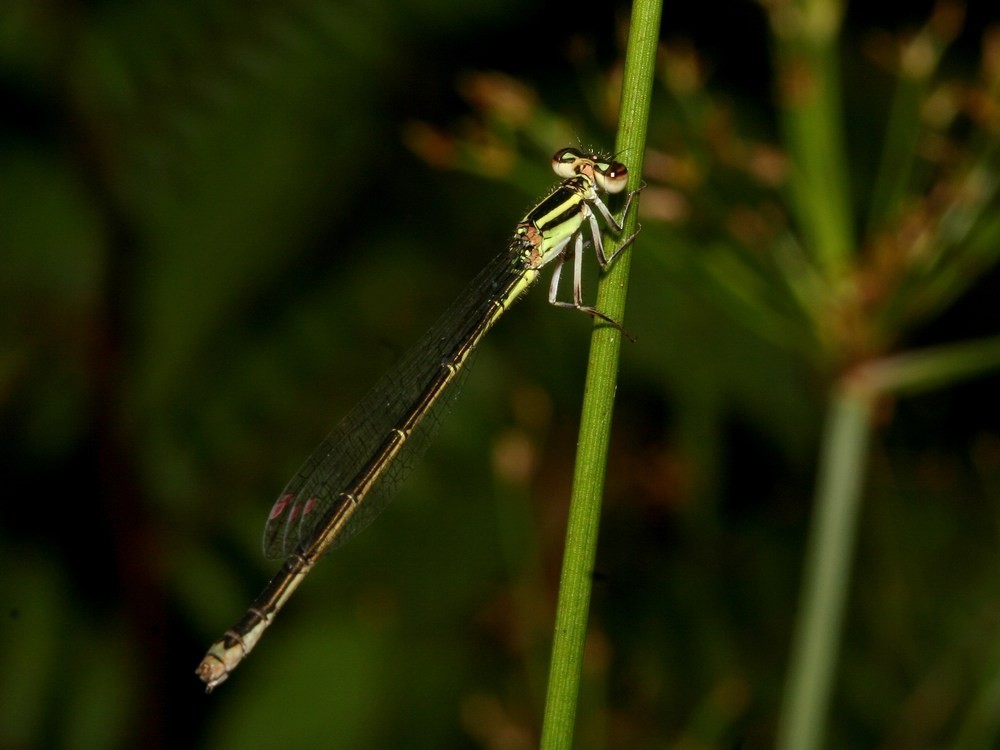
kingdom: Animalia
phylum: Arthropoda
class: Insecta
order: Odonata
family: Coenagrionidae
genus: Africallagma
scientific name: Africallagma rubristigma
